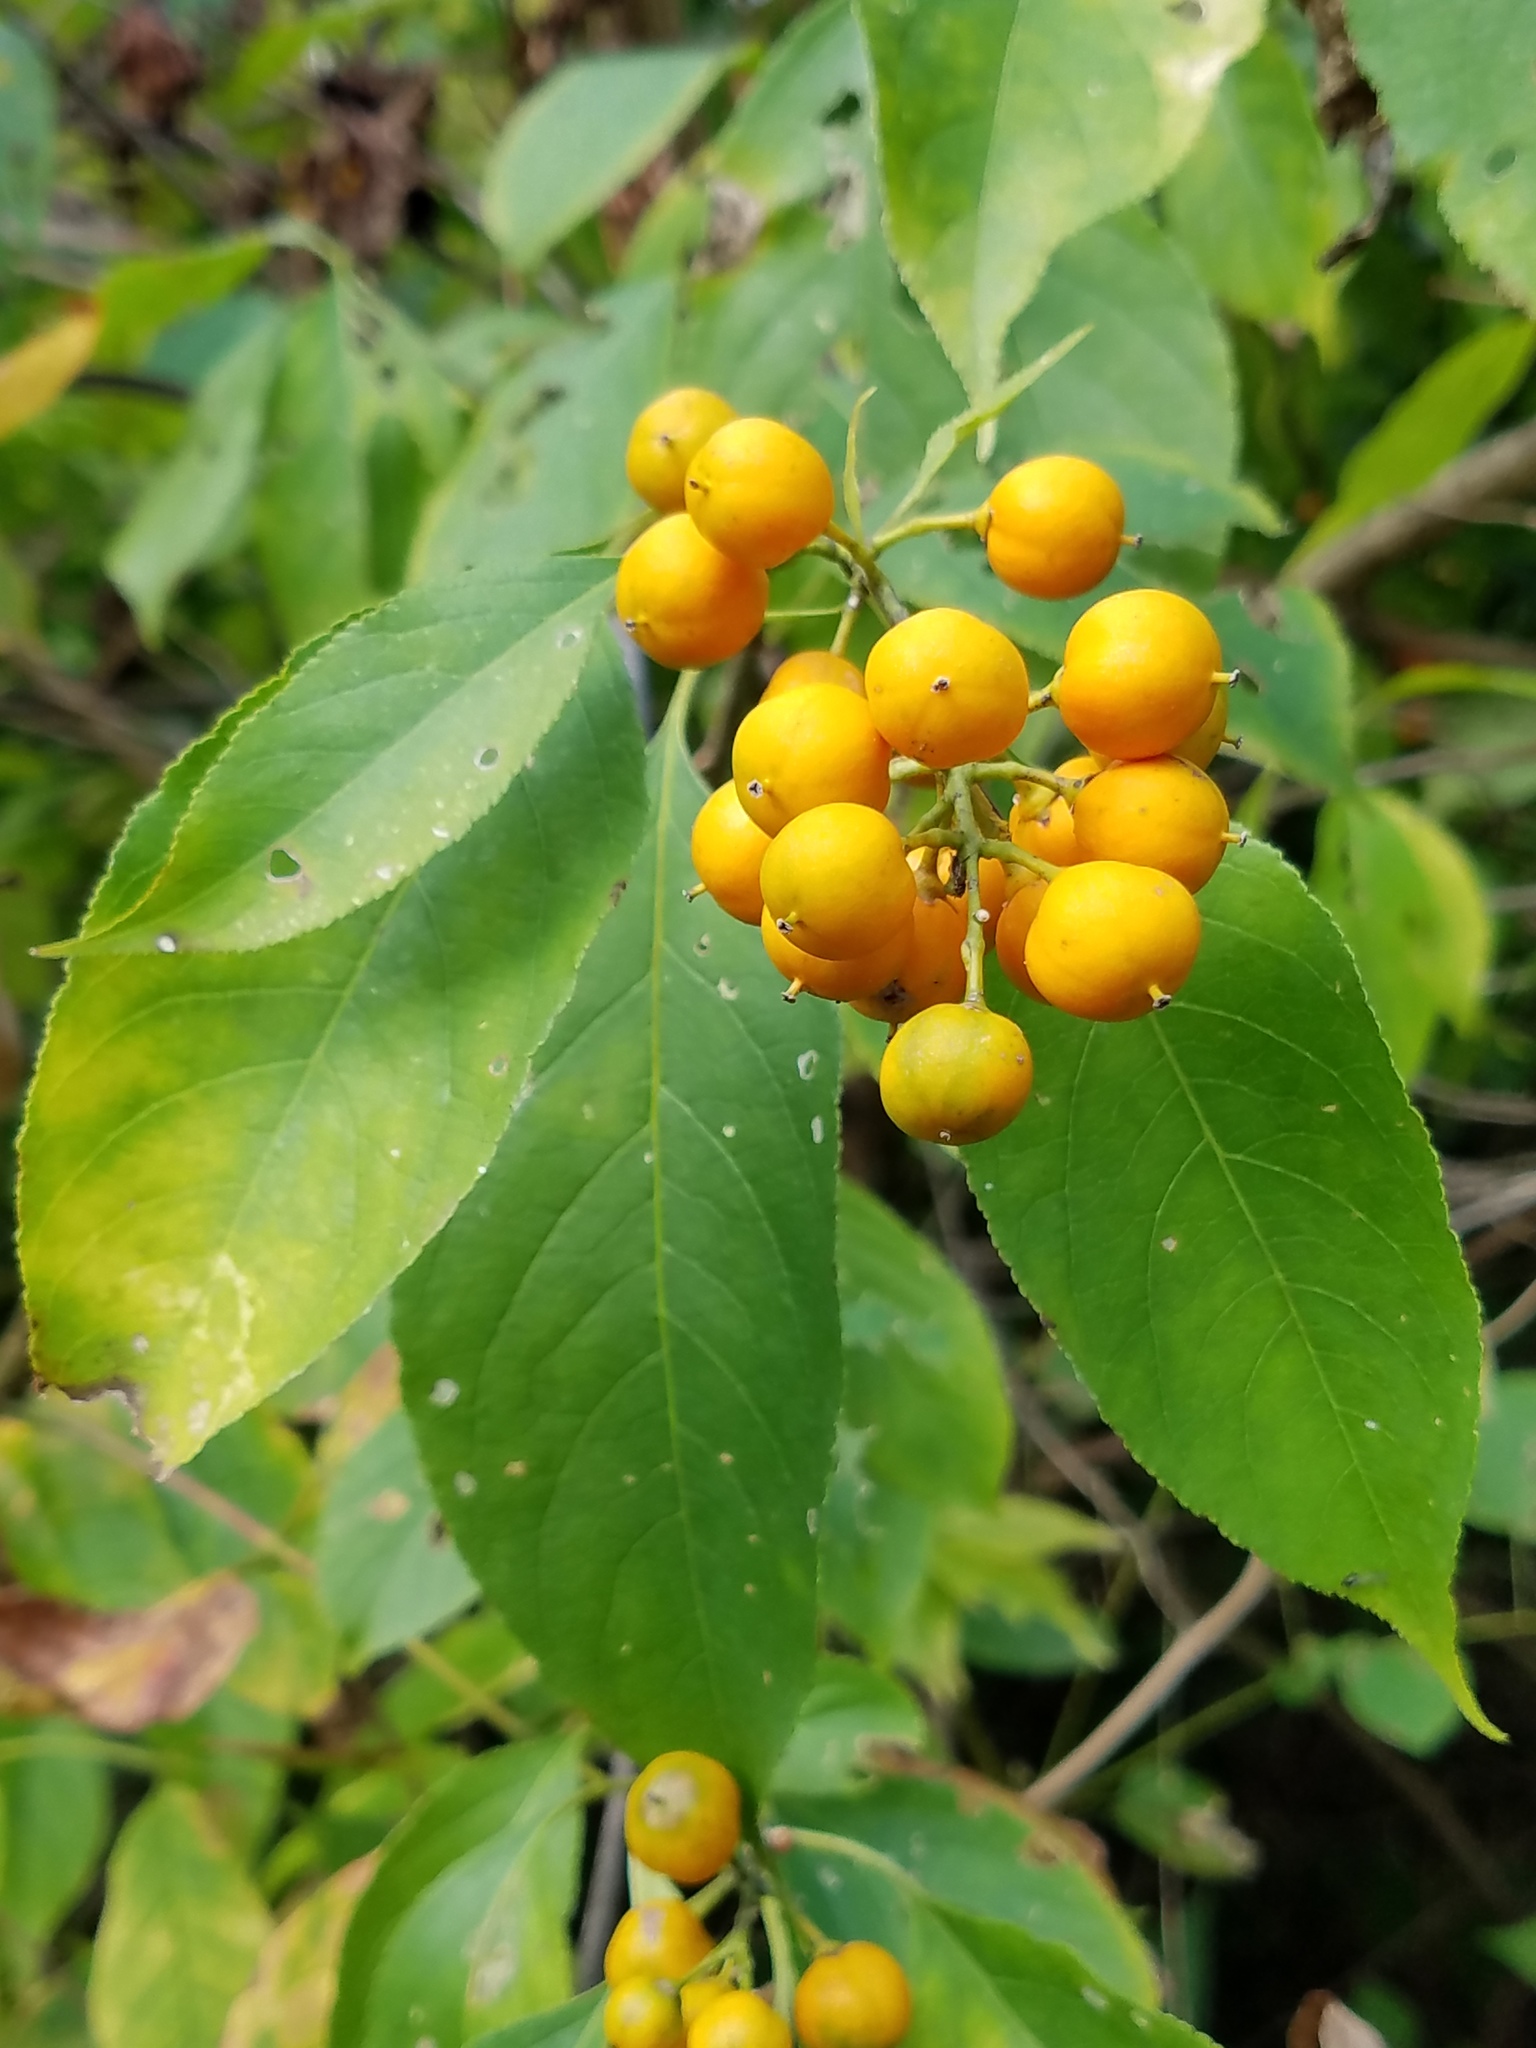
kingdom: Plantae
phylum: Tracheophyta
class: Magnoliopsida
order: Celastrales
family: Celastraceae
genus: Celastrus
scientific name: Celastrus scandens
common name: American bittersweet
